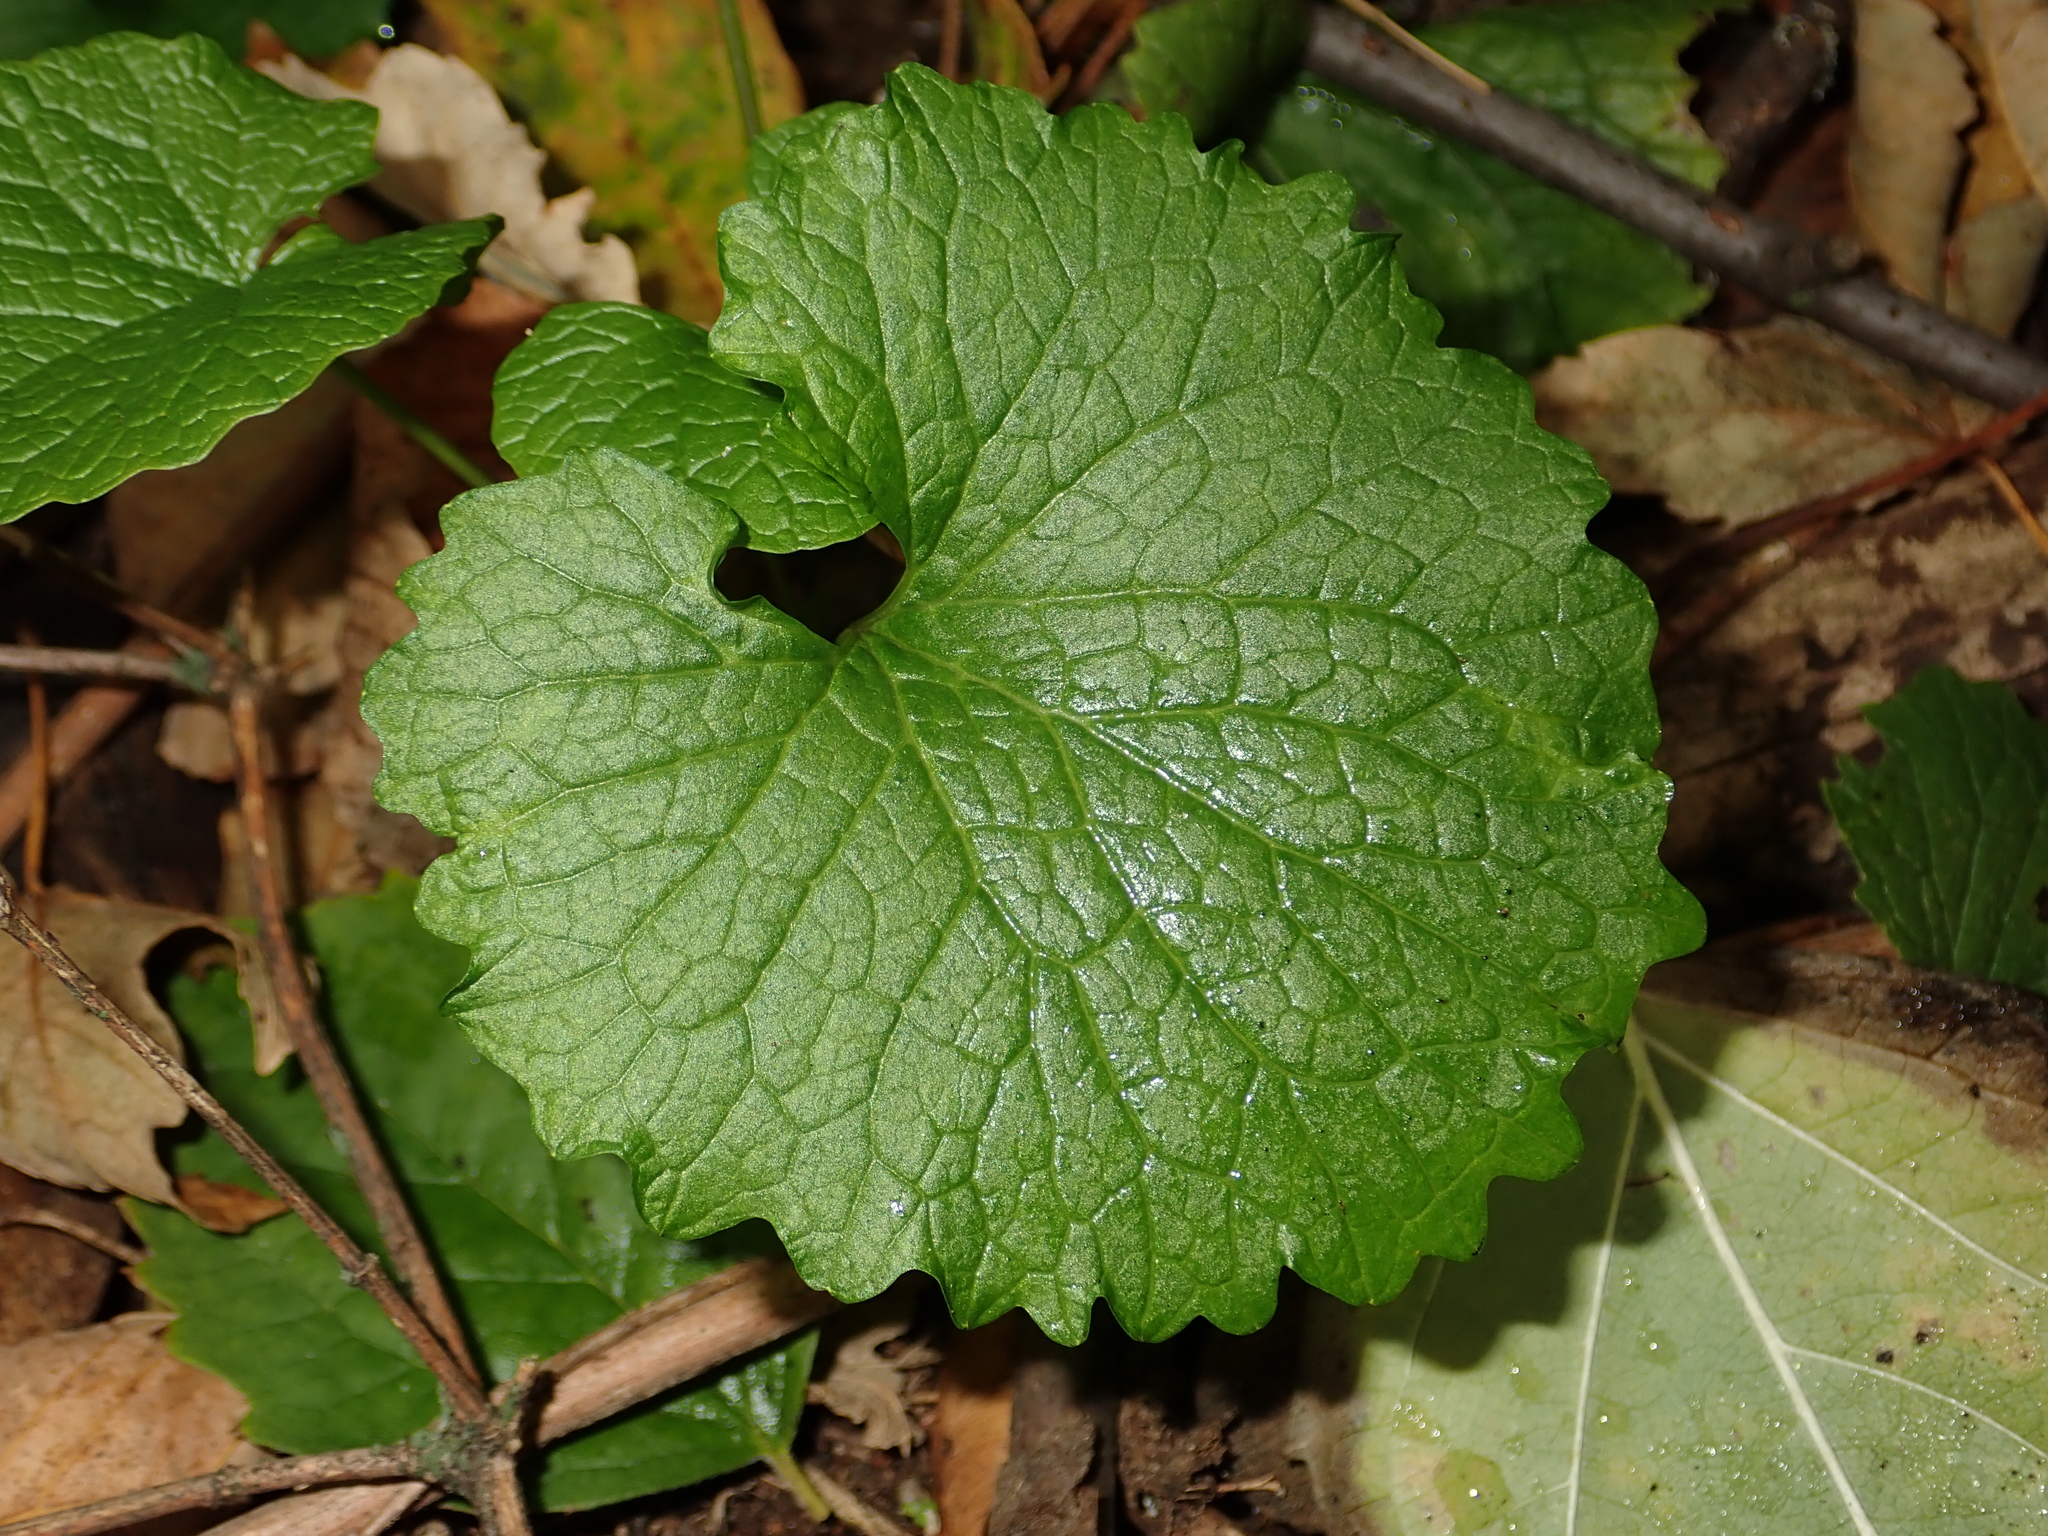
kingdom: Plantae
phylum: Tracheophyta
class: Magnoliopsida
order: Brassicales
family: Brassicaceae
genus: Alliaria
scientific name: Alliaria petiolata
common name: Garlic mustard
